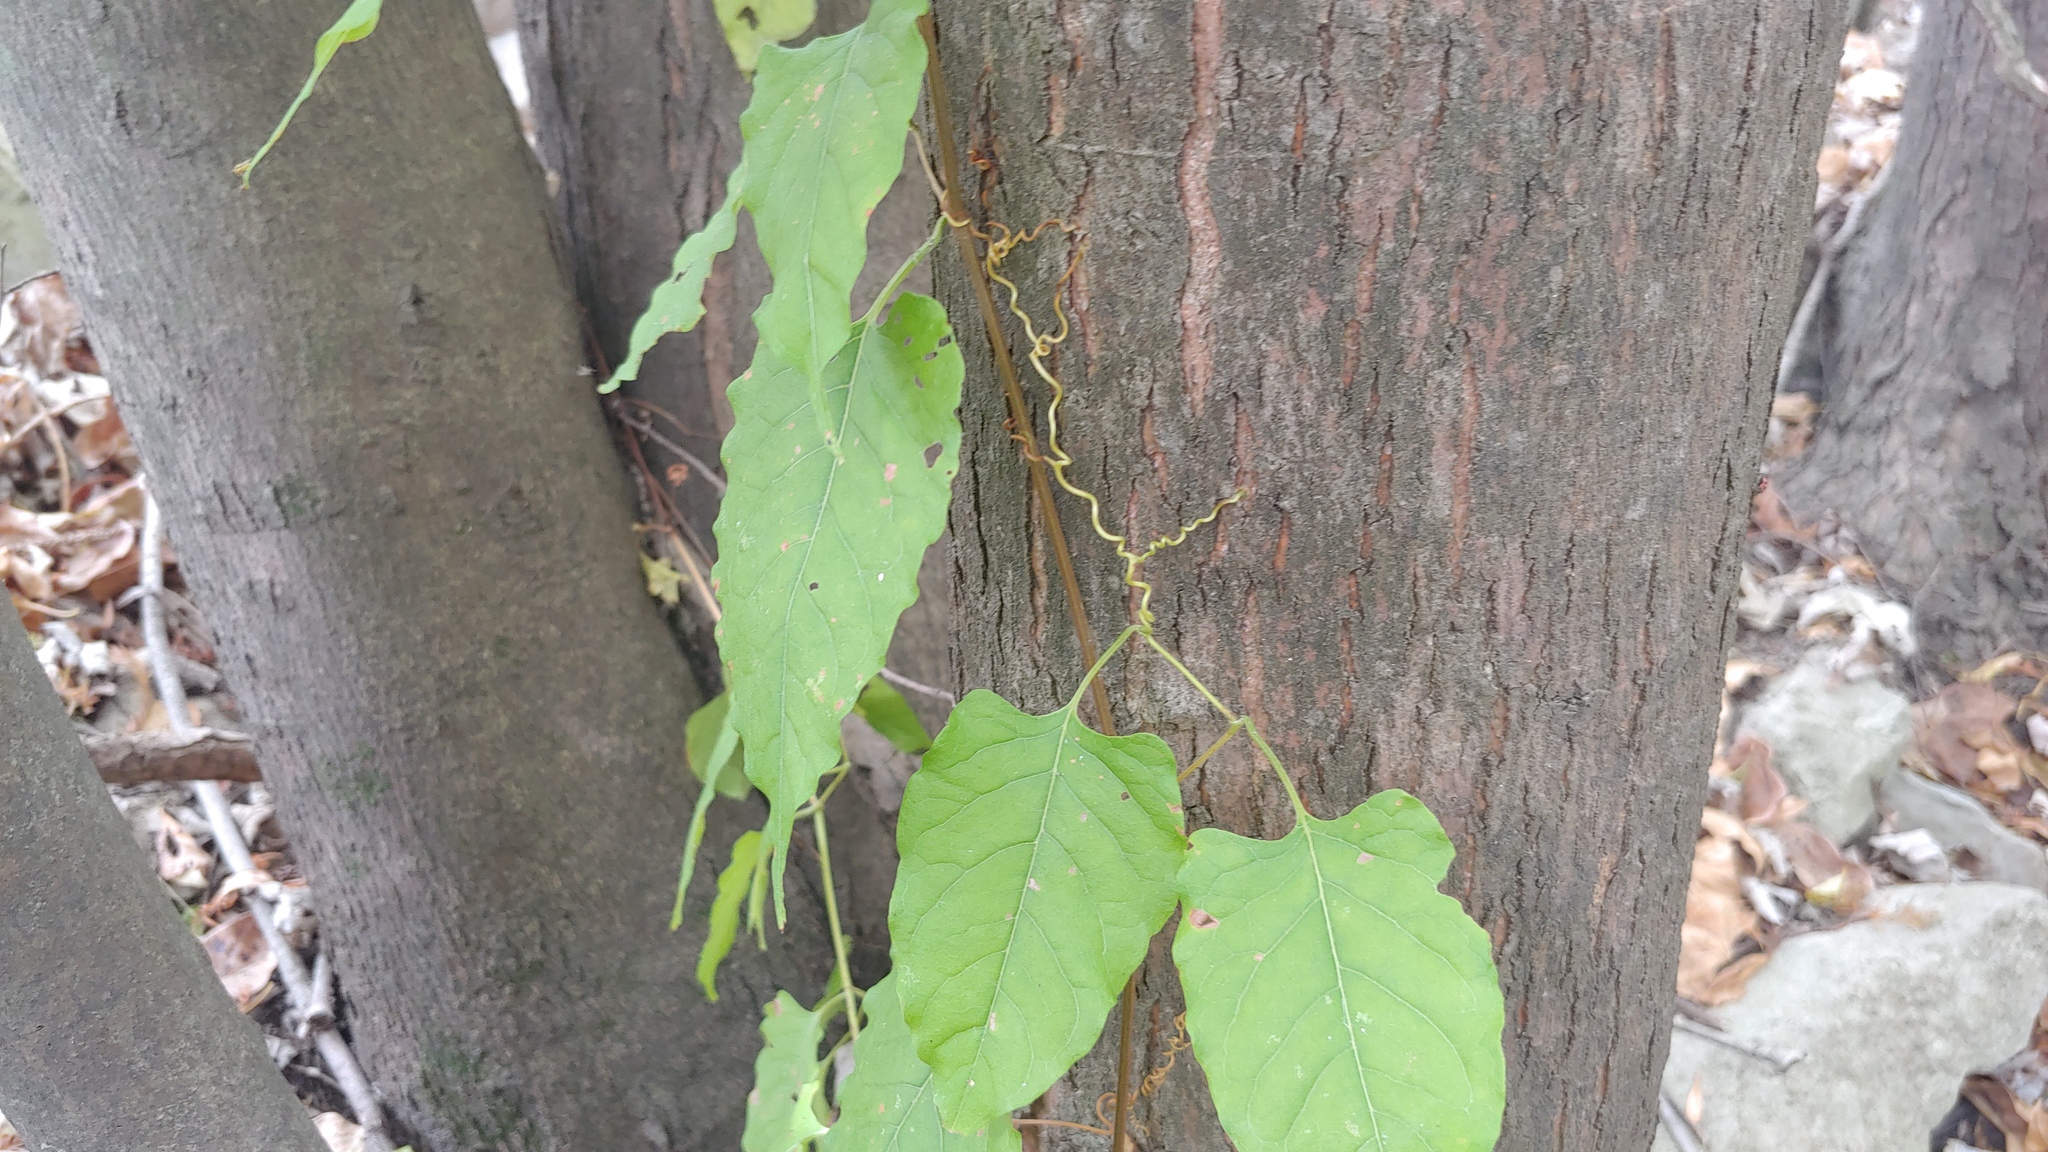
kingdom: Plantae
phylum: Tracheophyta
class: Magnoliopsida
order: Caryophyllales
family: Polygonaceae
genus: Brunnichia
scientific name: Brunnichia ovata
